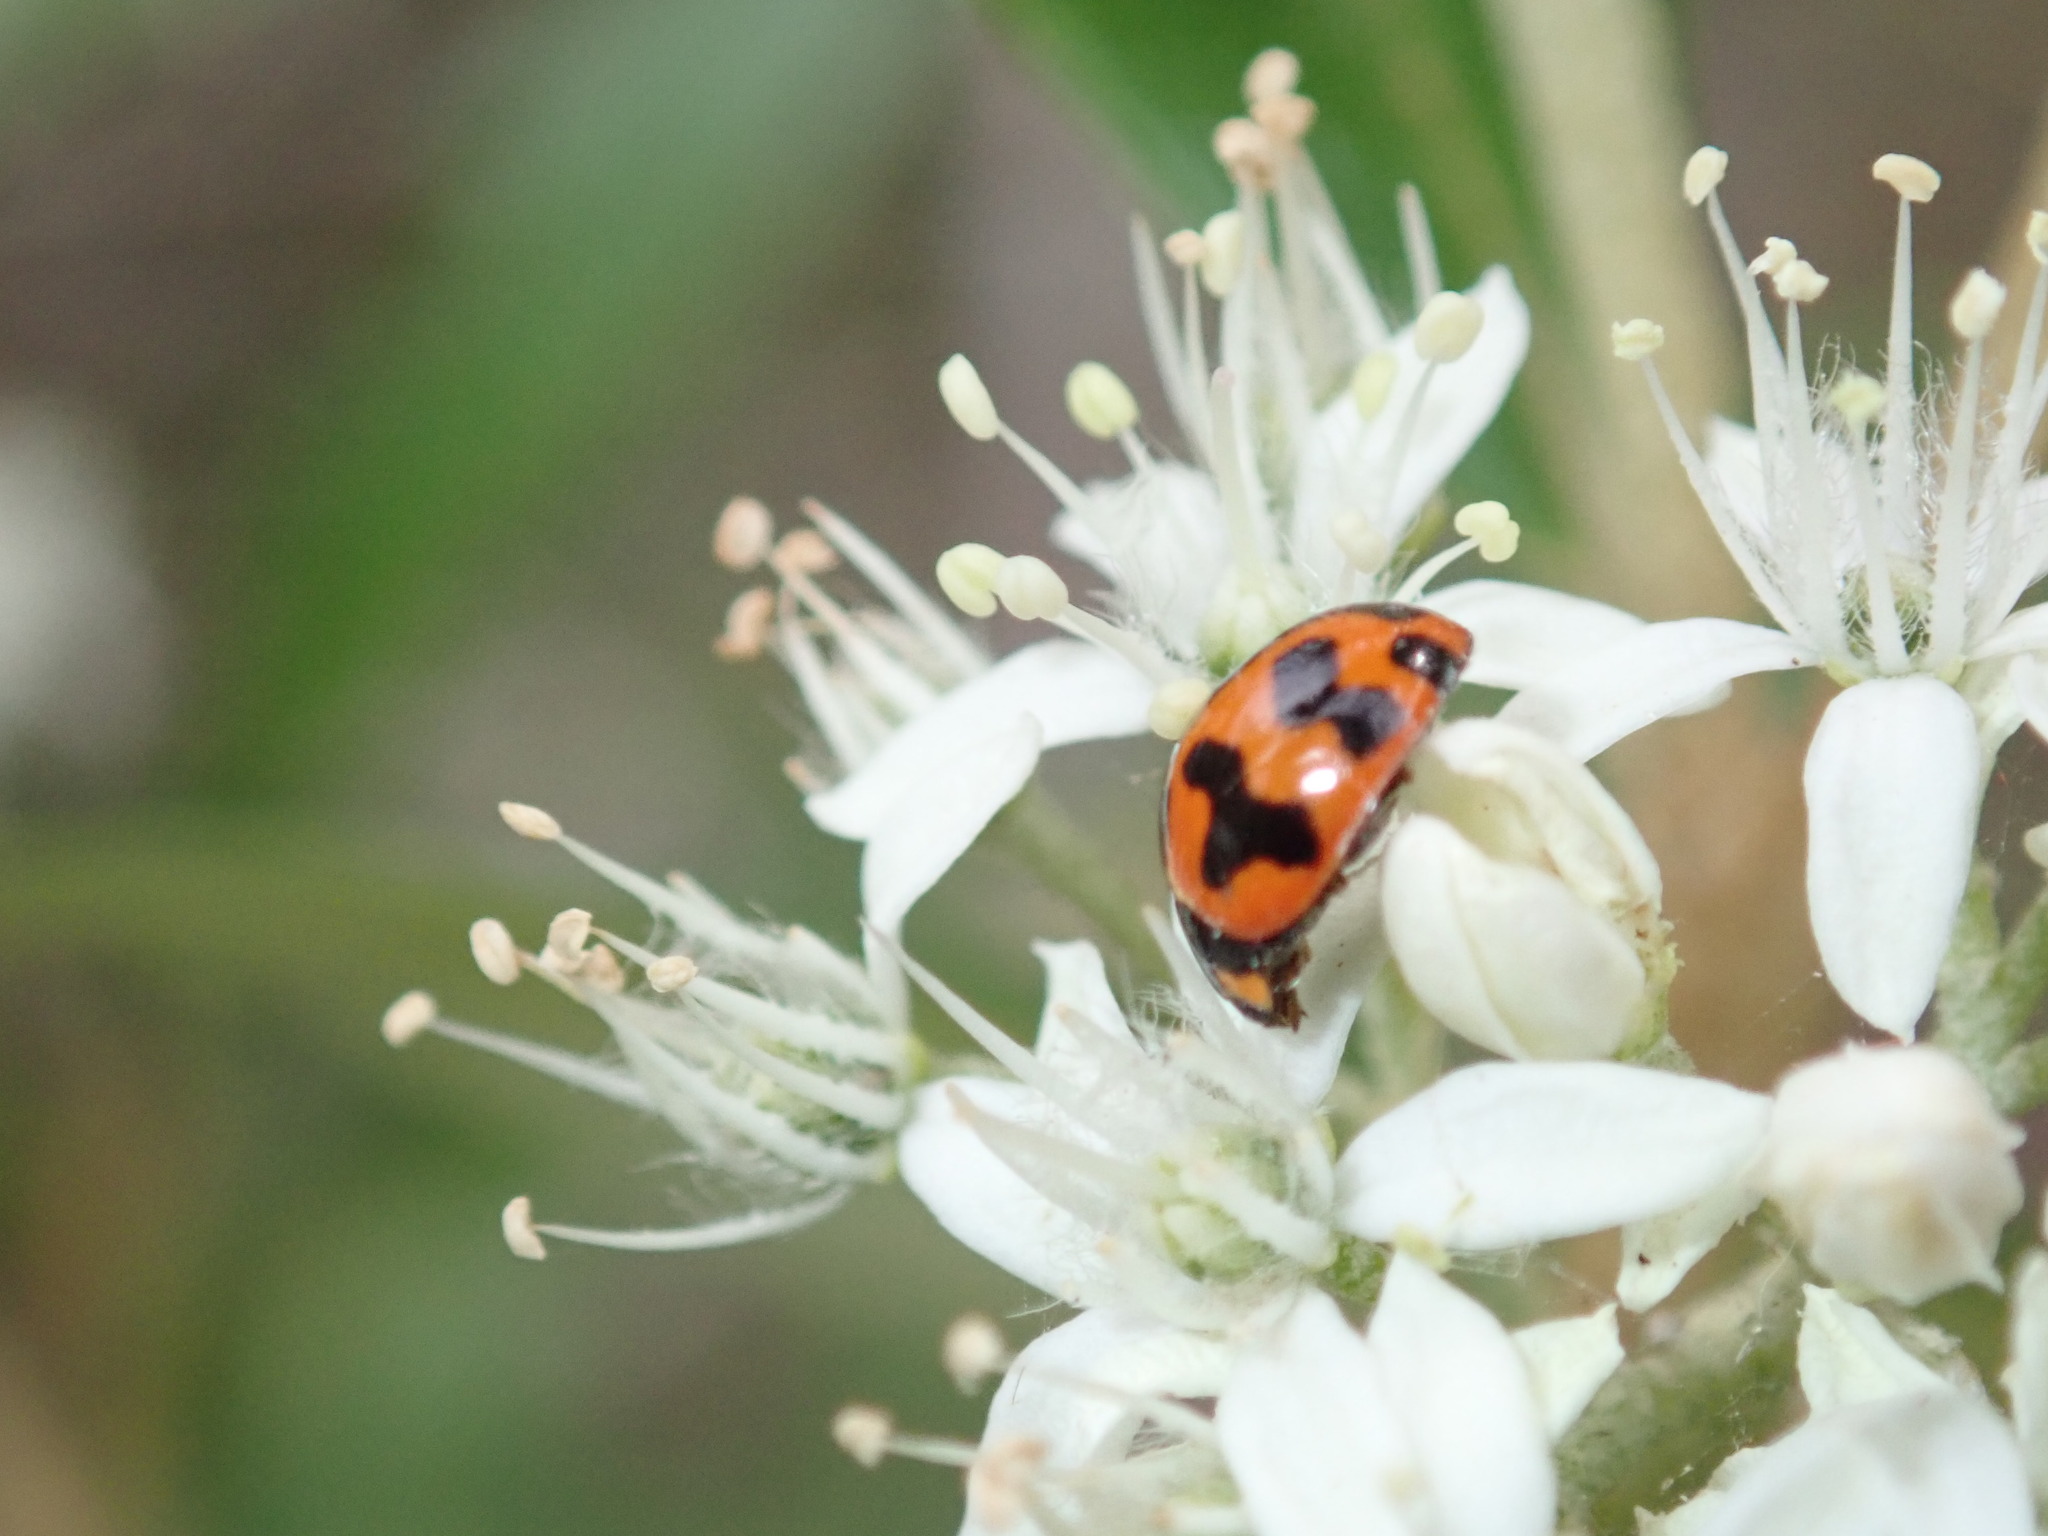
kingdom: Animalia
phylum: Arthropoda
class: Insecta
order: Coleoptera
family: Coccinellidae
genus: Coccinella
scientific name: Coccinella transversalis
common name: Transverse lady beetle
